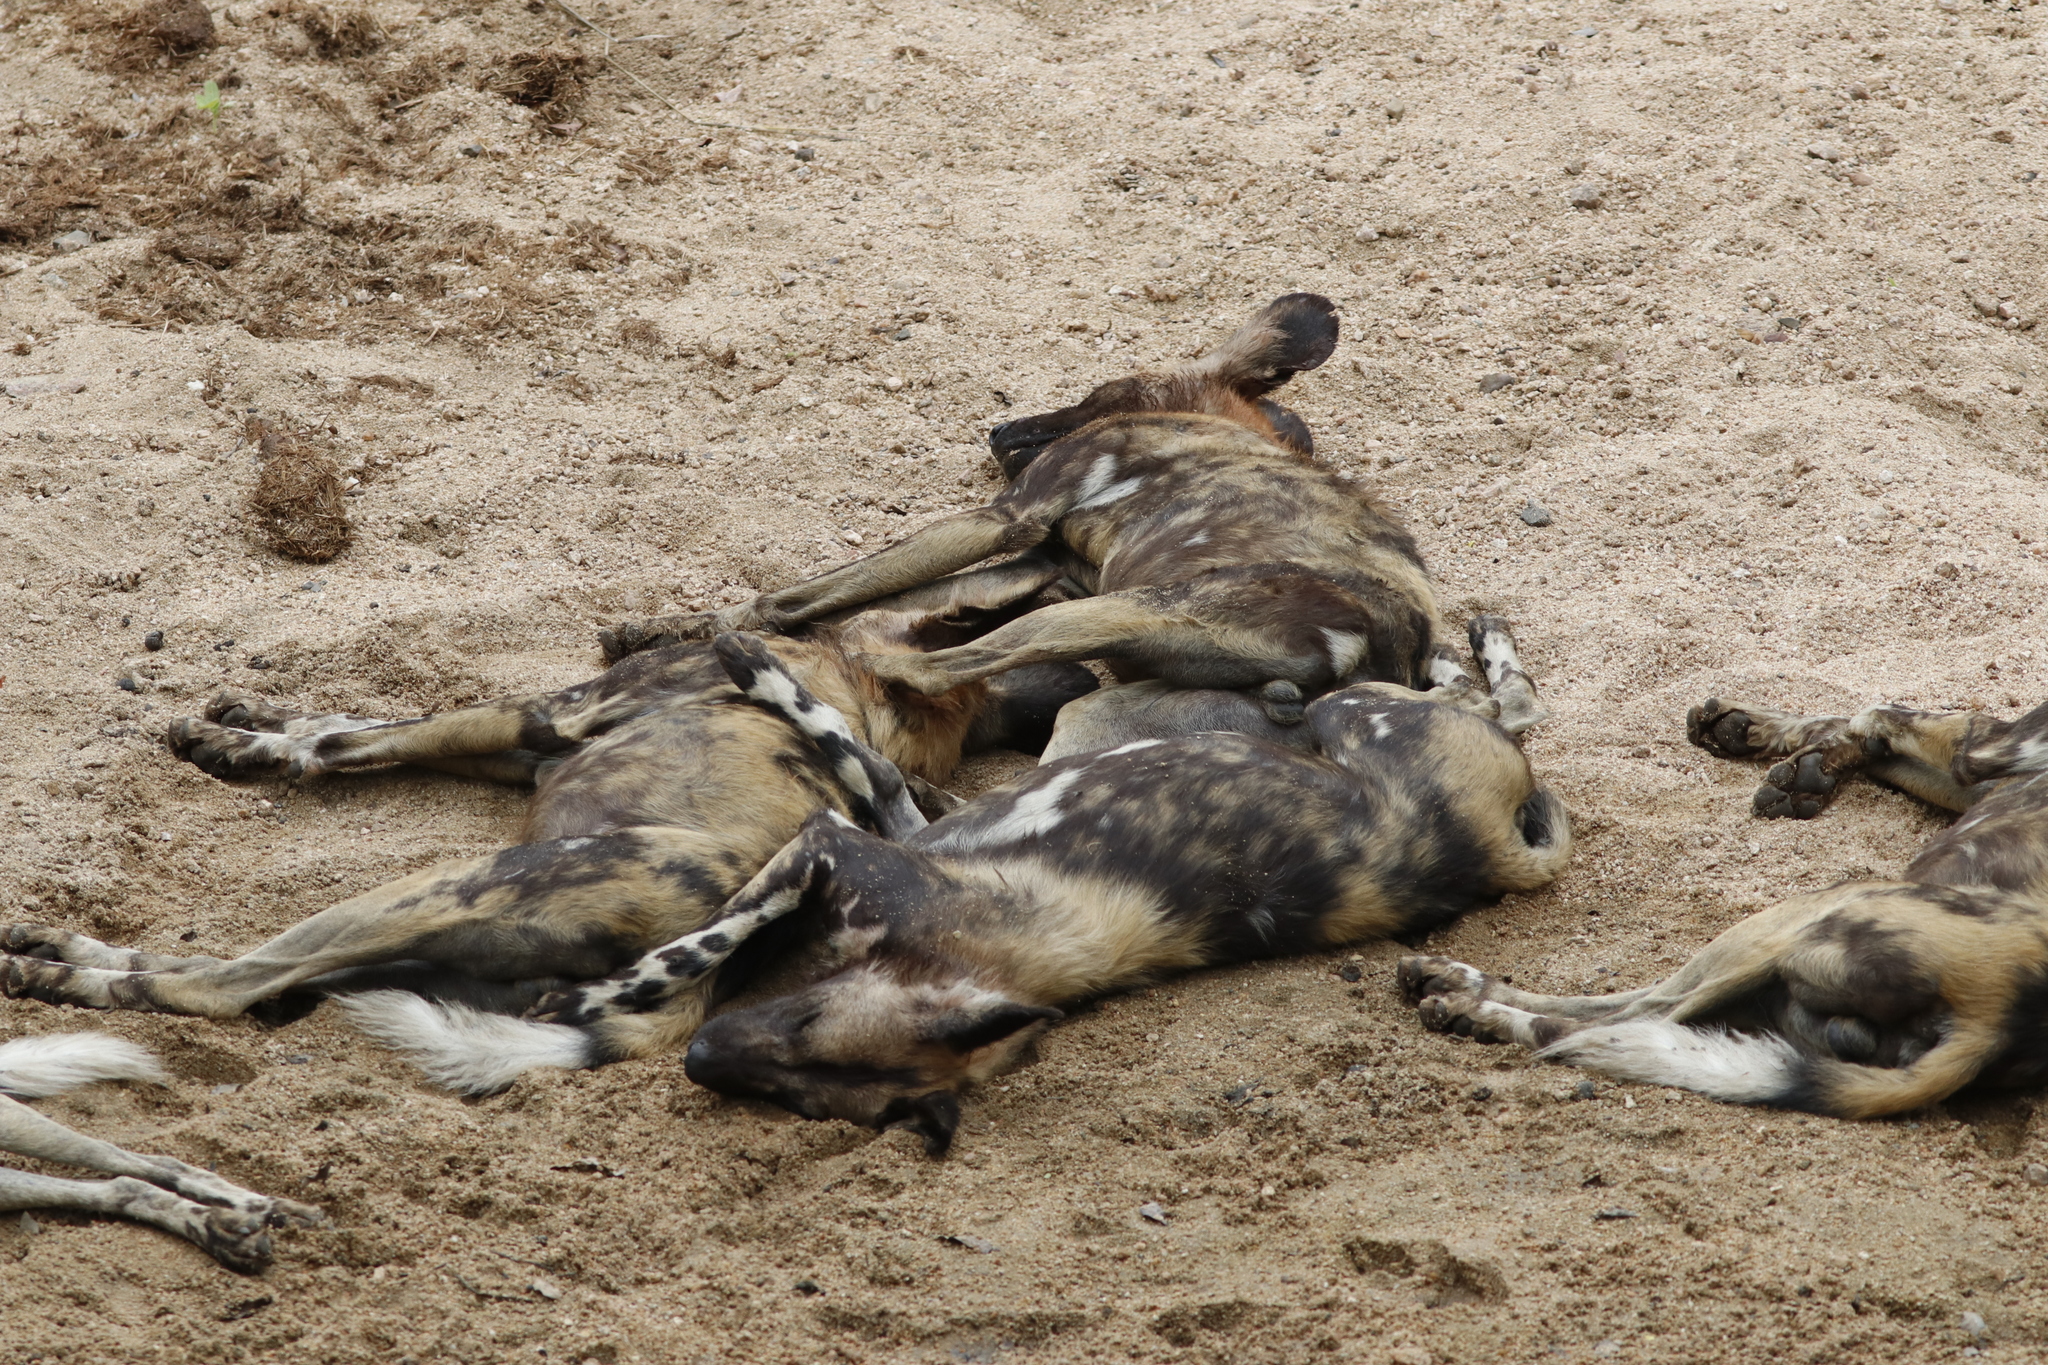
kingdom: Animalia
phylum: Chordata
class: Mammalia
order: Carnivora
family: Canidae
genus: Lycaon
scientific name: Lycaon pictus
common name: African wild dog
